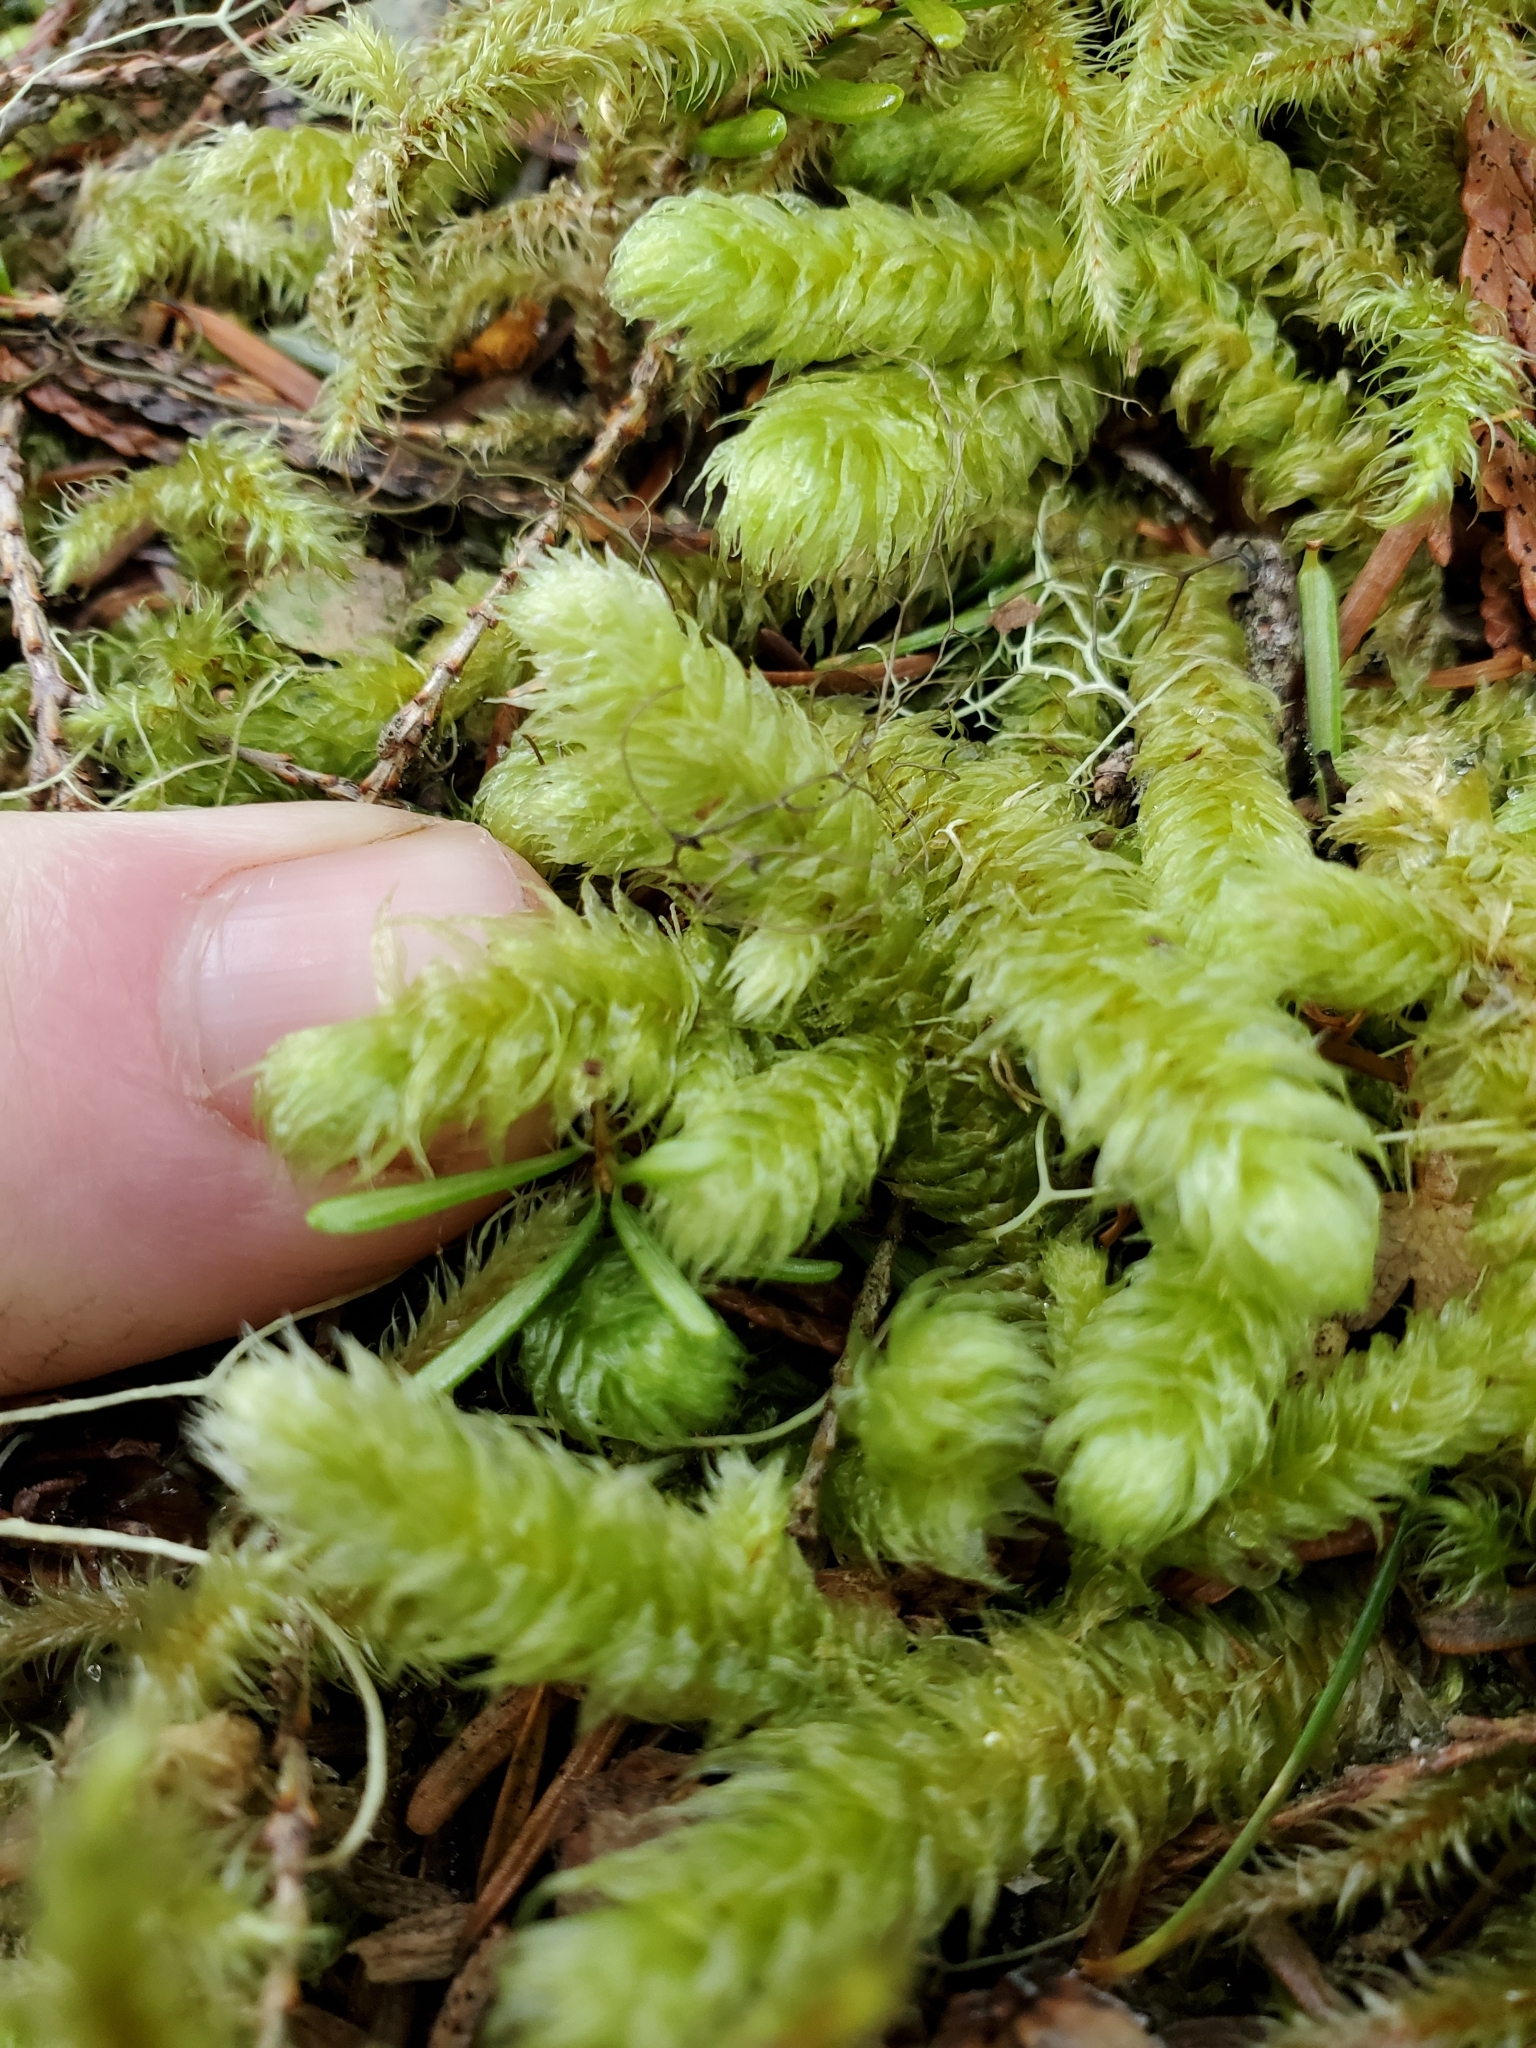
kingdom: Plantae
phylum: Bryophyta
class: Bryopsida
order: Hypnales
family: Hylocomiaceae
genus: Rhytidiopsis
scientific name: Rhytidiopsis robusta
